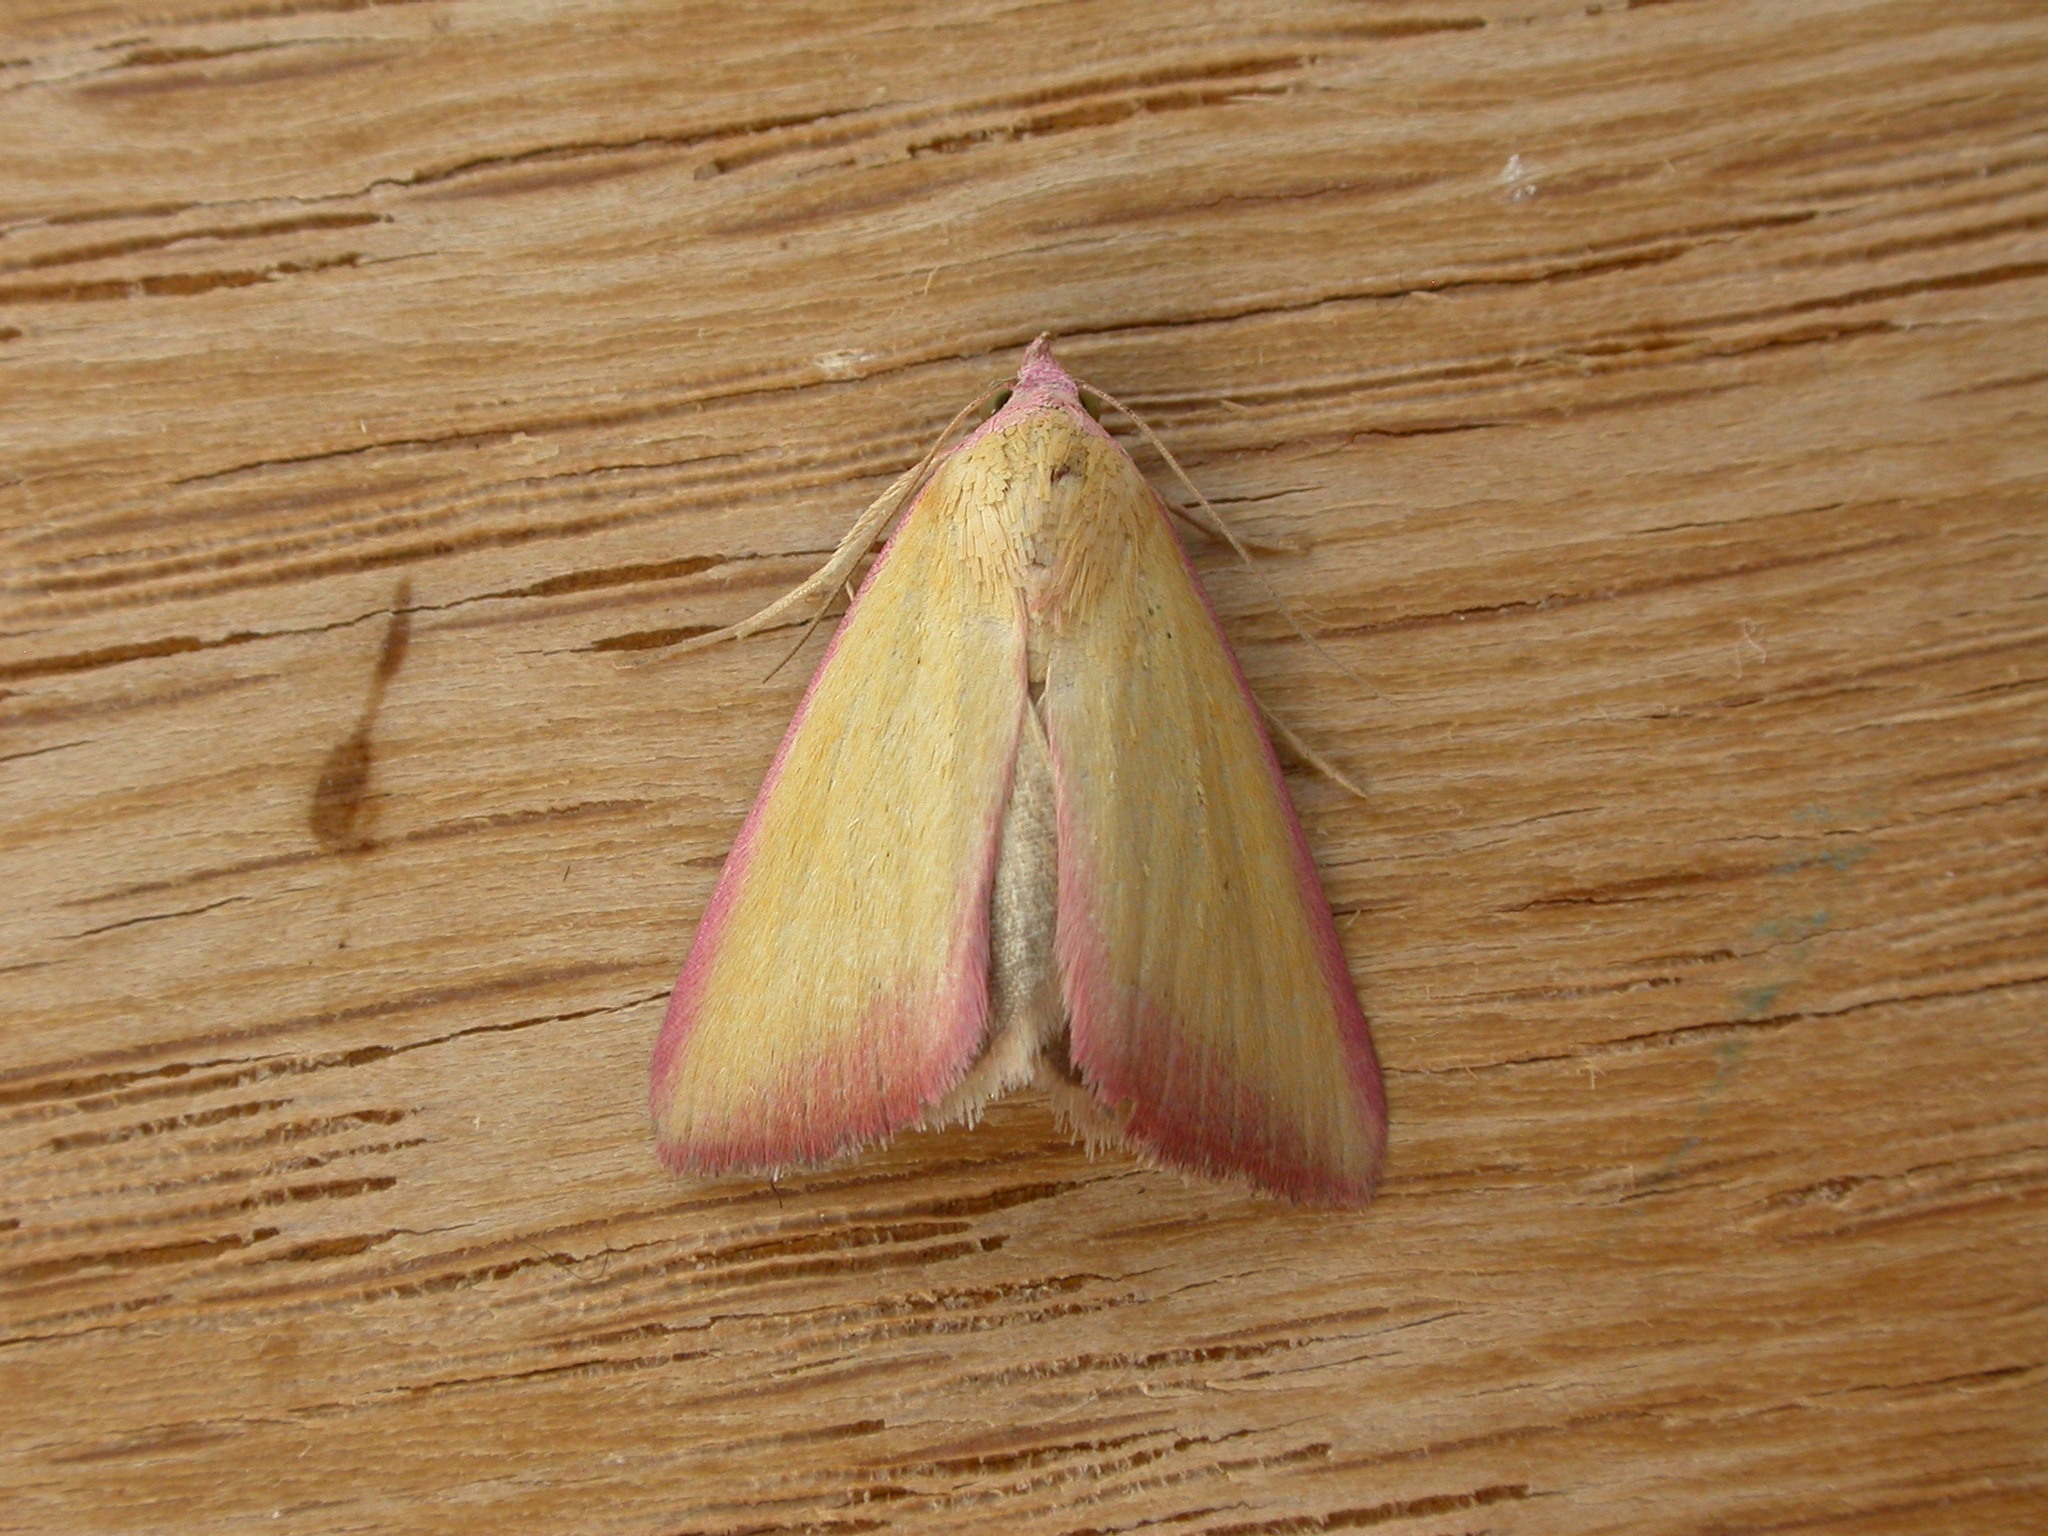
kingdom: Animalia
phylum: Arthropoda
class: Insecta
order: Lepidoptera
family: Erebidae
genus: Phytometra
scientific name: Phytometra formosalis
